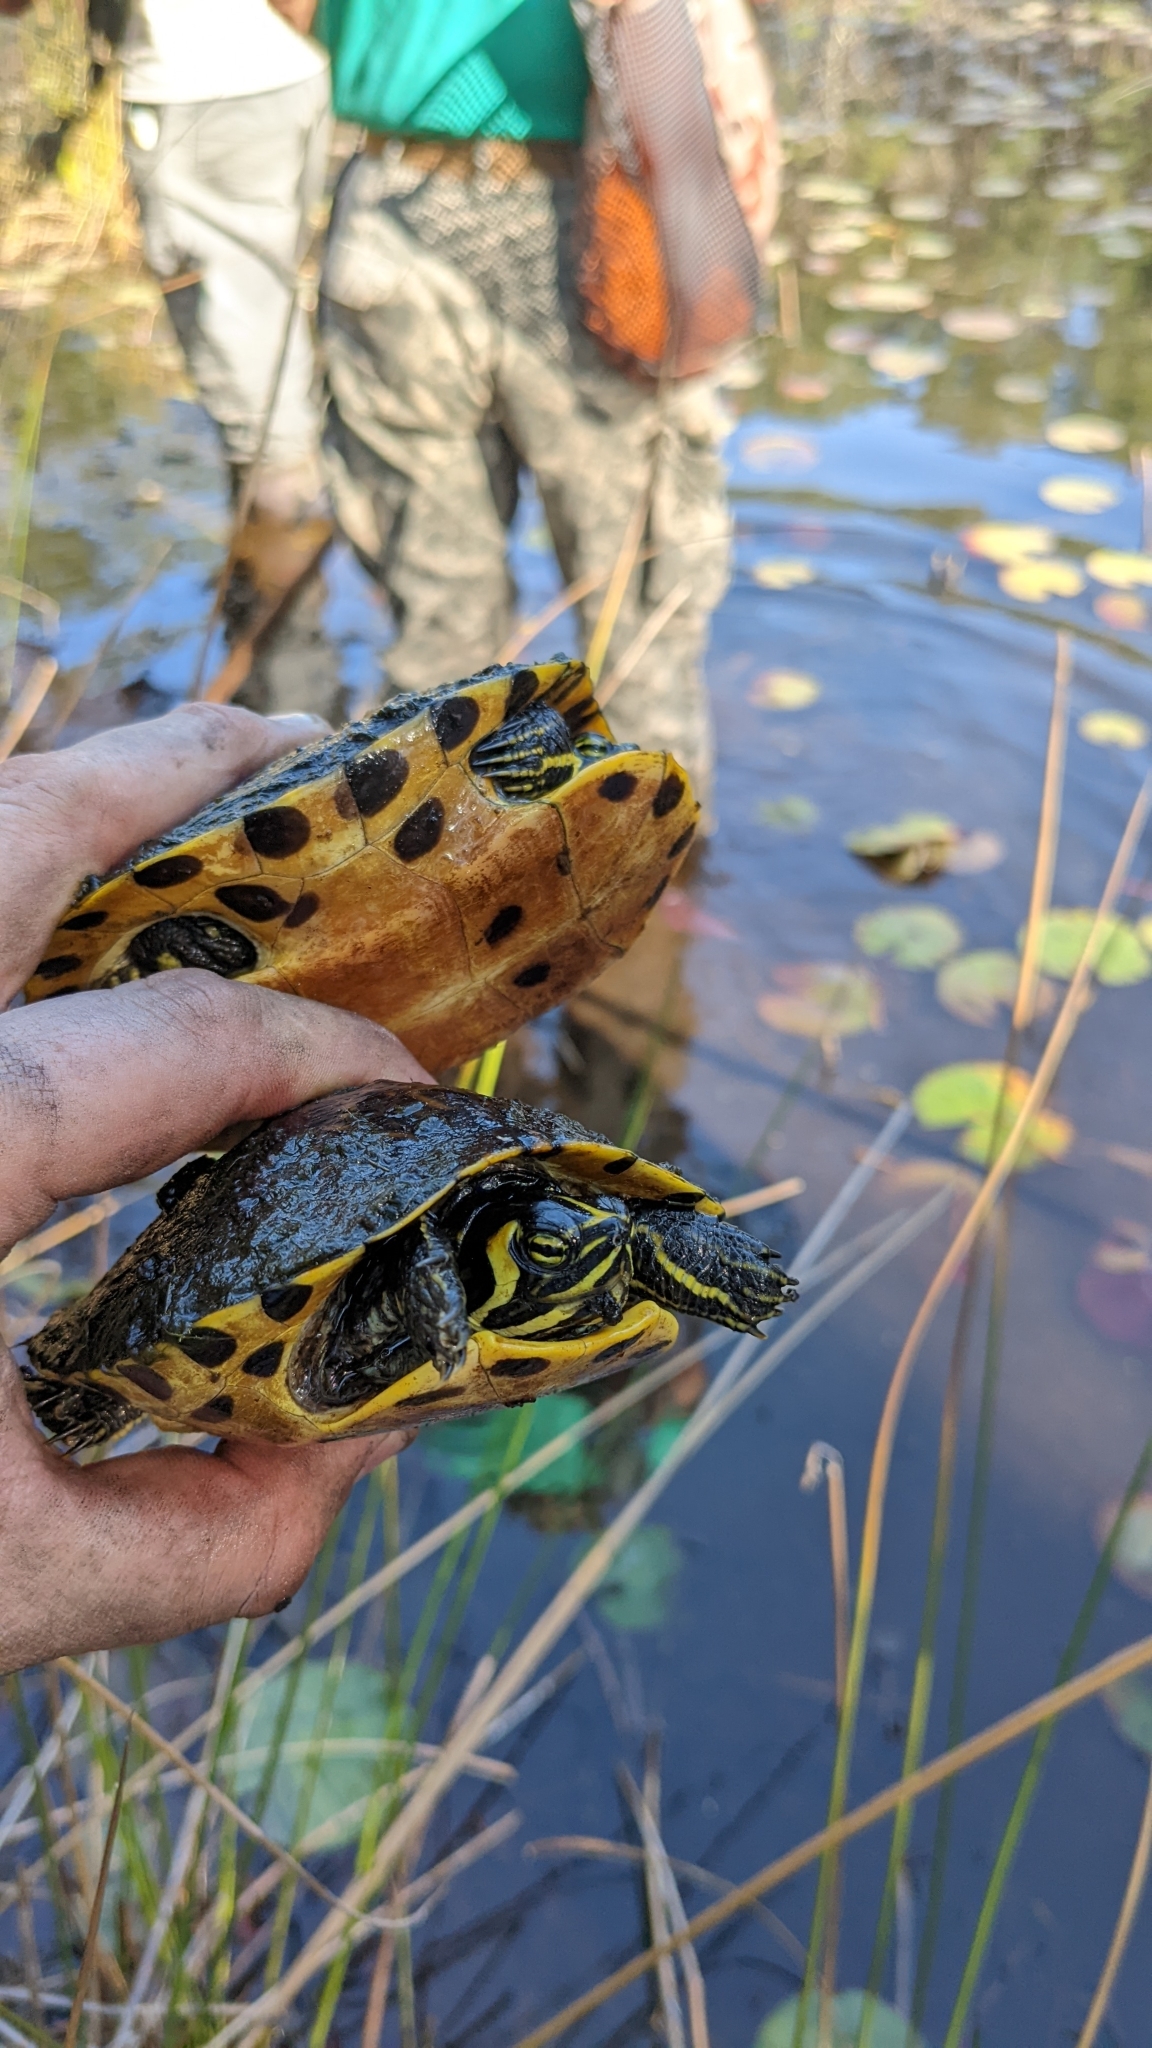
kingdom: Animalia
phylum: Chordata
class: Testudines
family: Emydidae
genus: Trachemys
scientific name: Trachemys scripta
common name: Slider
